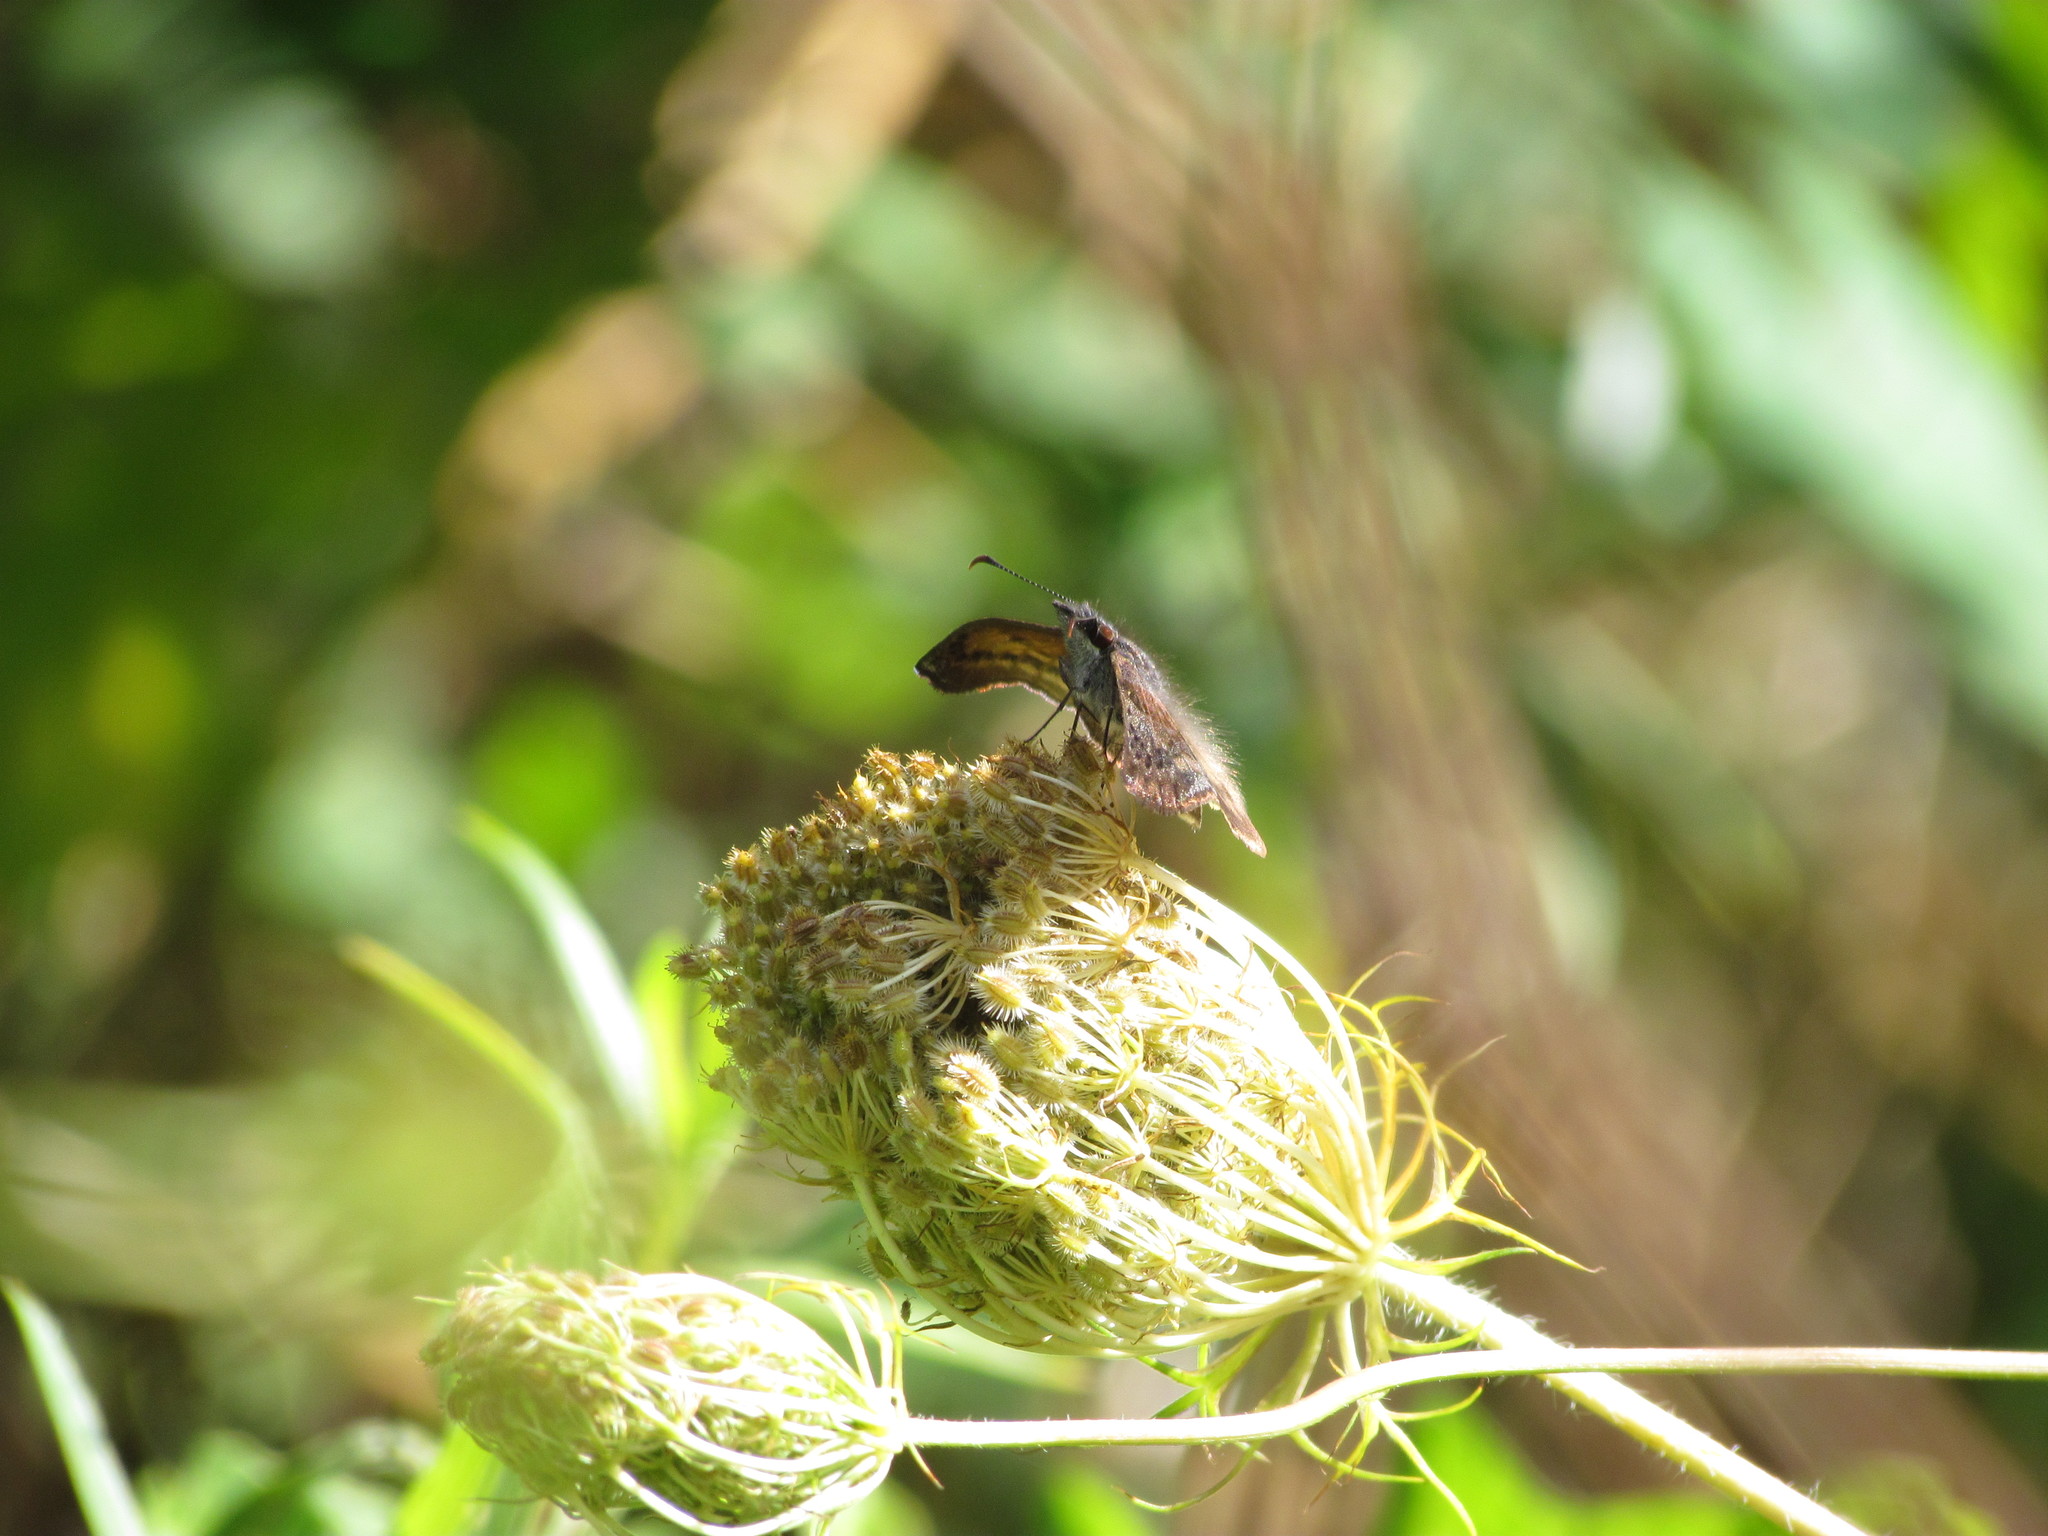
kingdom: Animalia
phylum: Arthropoda
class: Insecta
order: Lepidoptera
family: Hesperiidae
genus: Theagenes
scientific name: Theagenes dichrous
